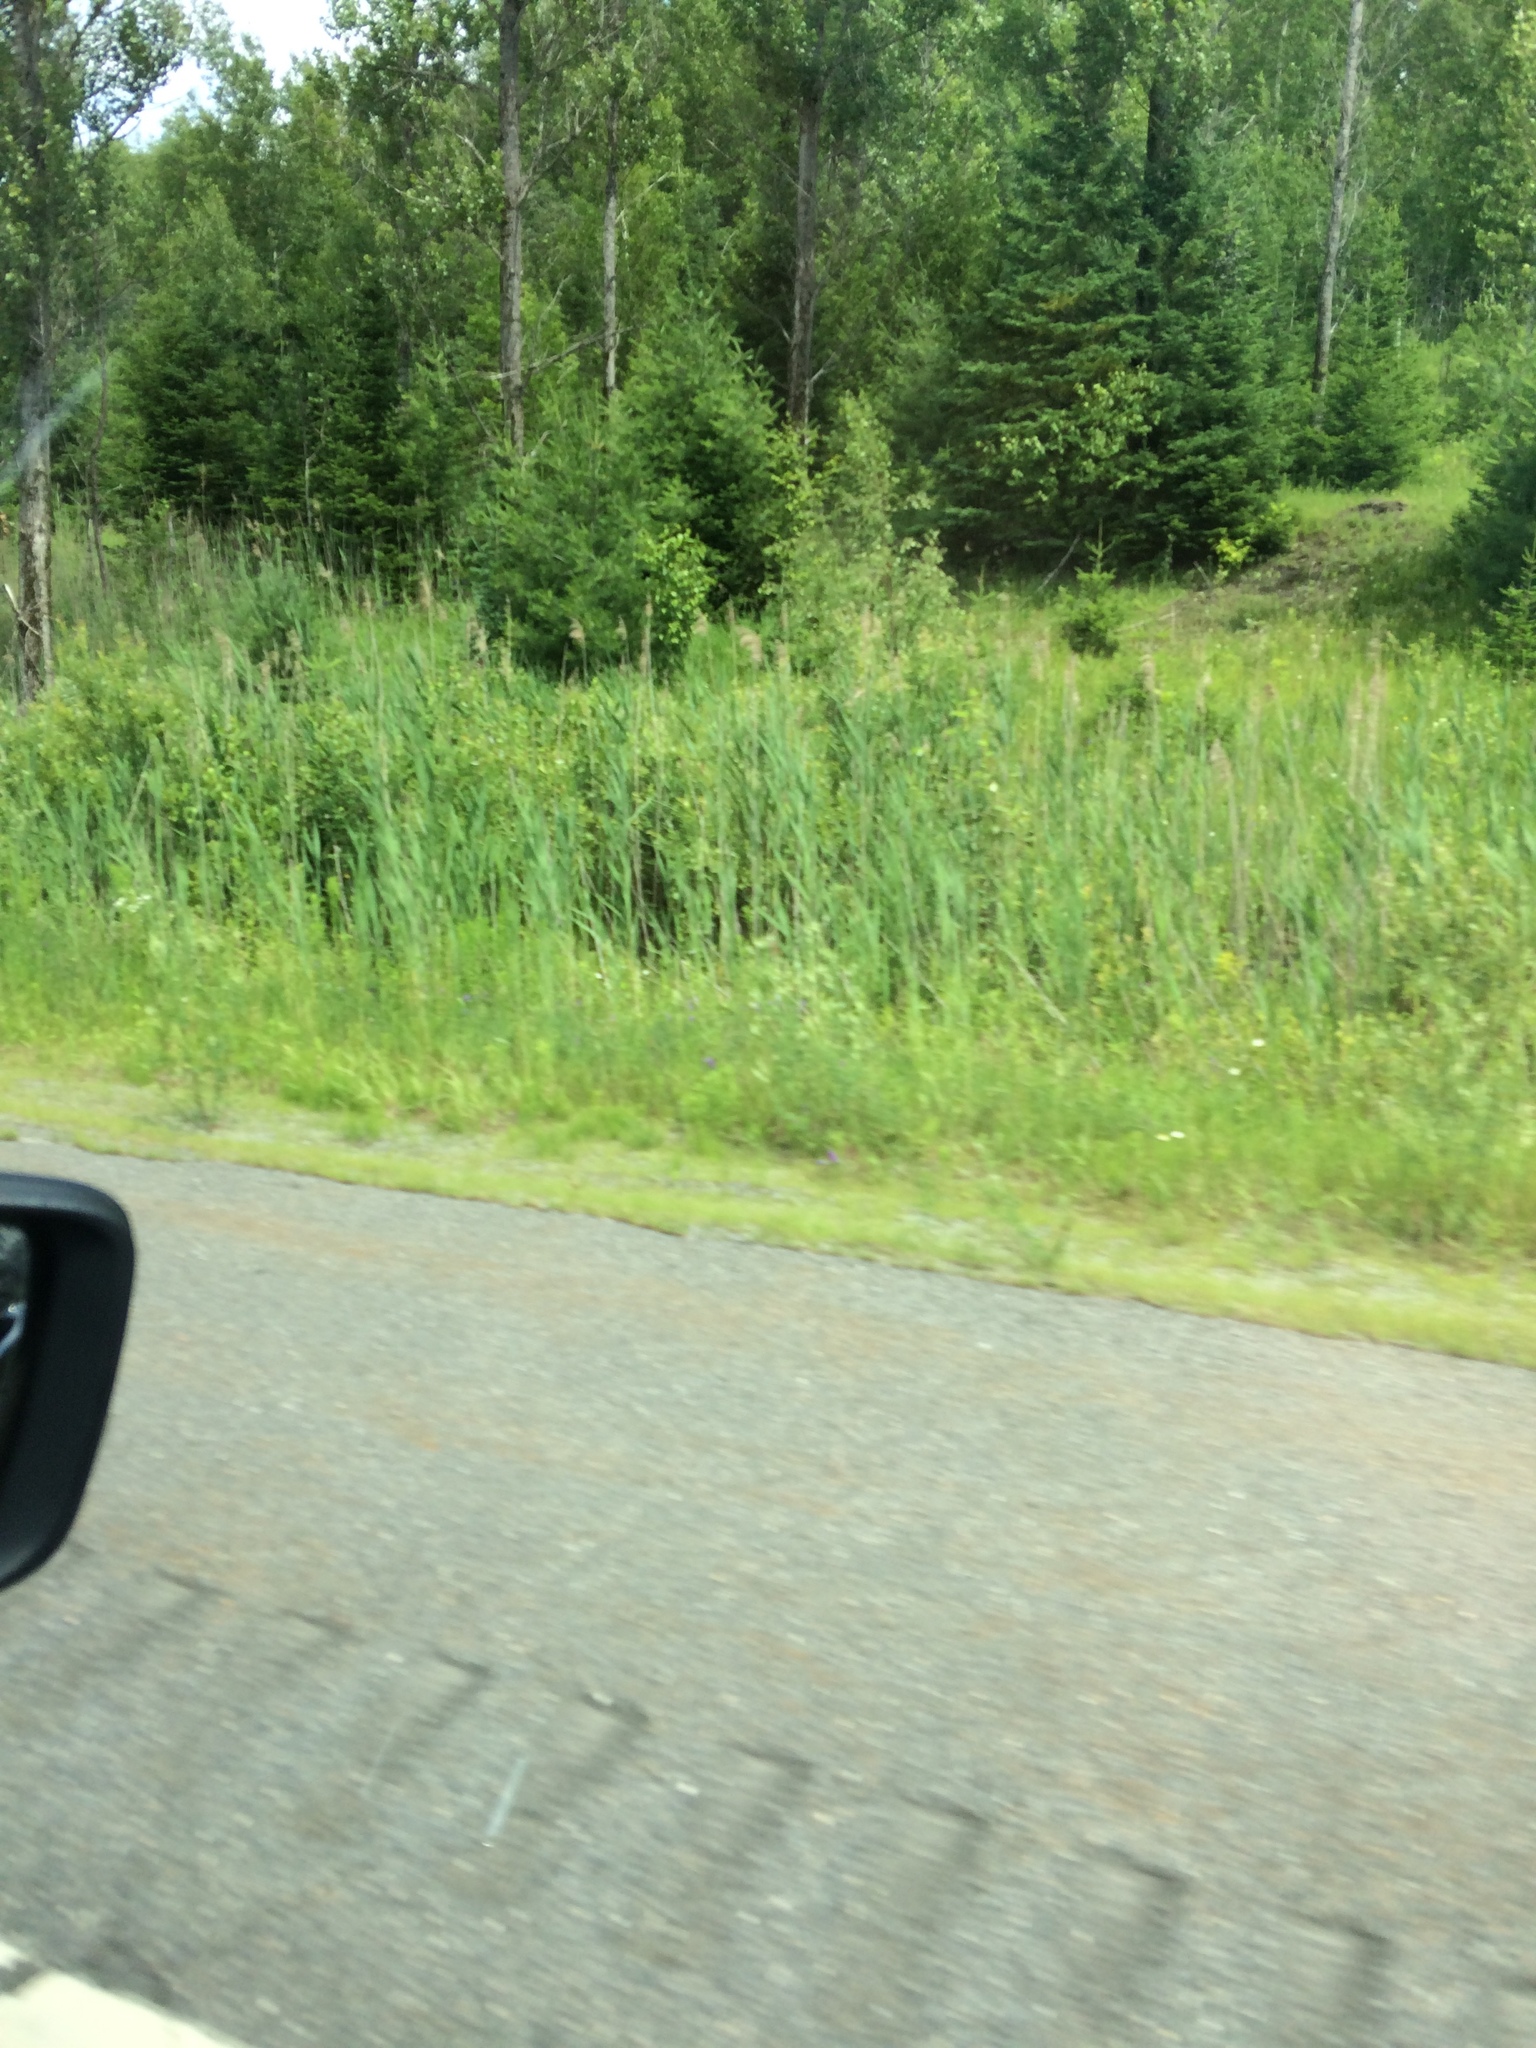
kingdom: Plantae
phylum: Tracheophyta
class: Liliopsida
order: Poales
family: Poaceae
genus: Phragmites
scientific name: Phragmites australis
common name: Common reed
